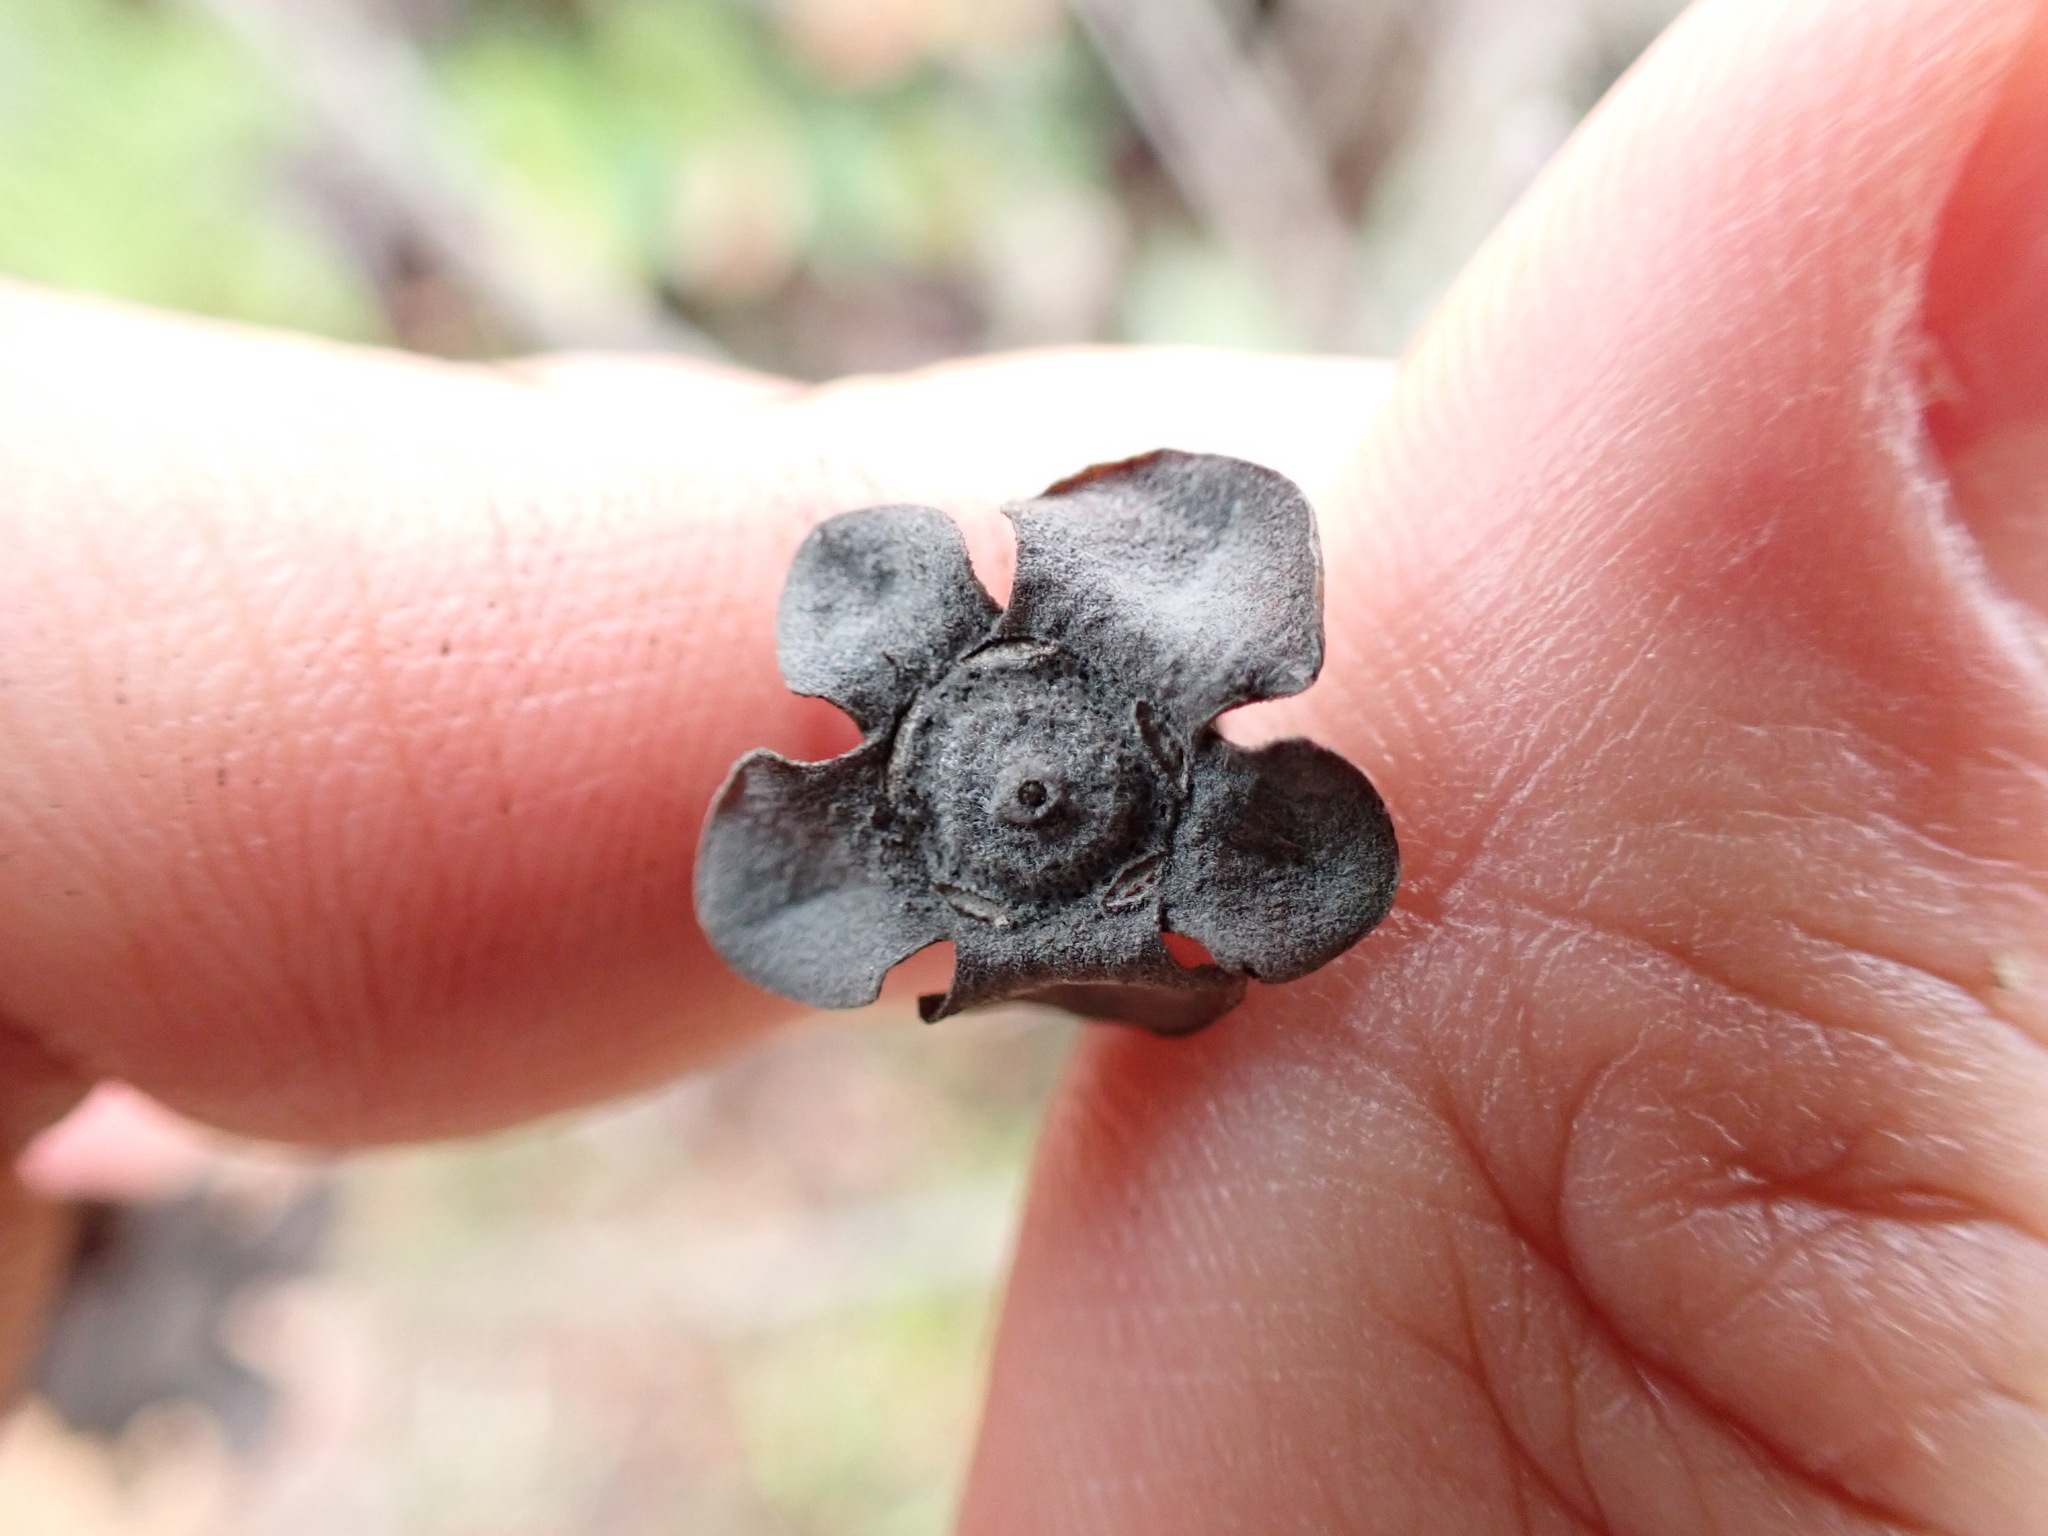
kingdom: Plantae
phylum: Tracheophyta
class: Magnoliopsida
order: Myrtales
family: Myrtaceae
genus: Rhodomyrtus
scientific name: Rhodomyrtus tomentosa
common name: Rose myrtle
